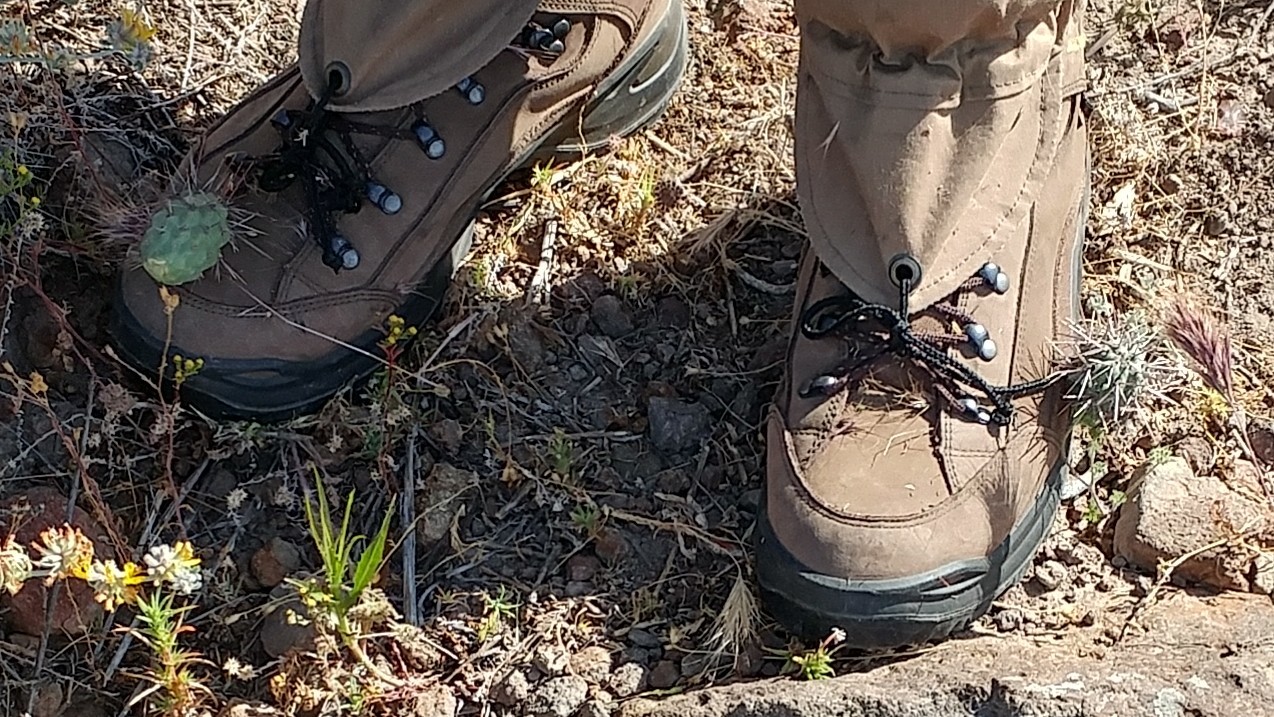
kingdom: Plantae
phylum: Tracheophyta
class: Magnoliopsida
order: Caryophyllales
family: Cactaceae
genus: Cylindropuntia
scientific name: Cylindropuntia prolifera
